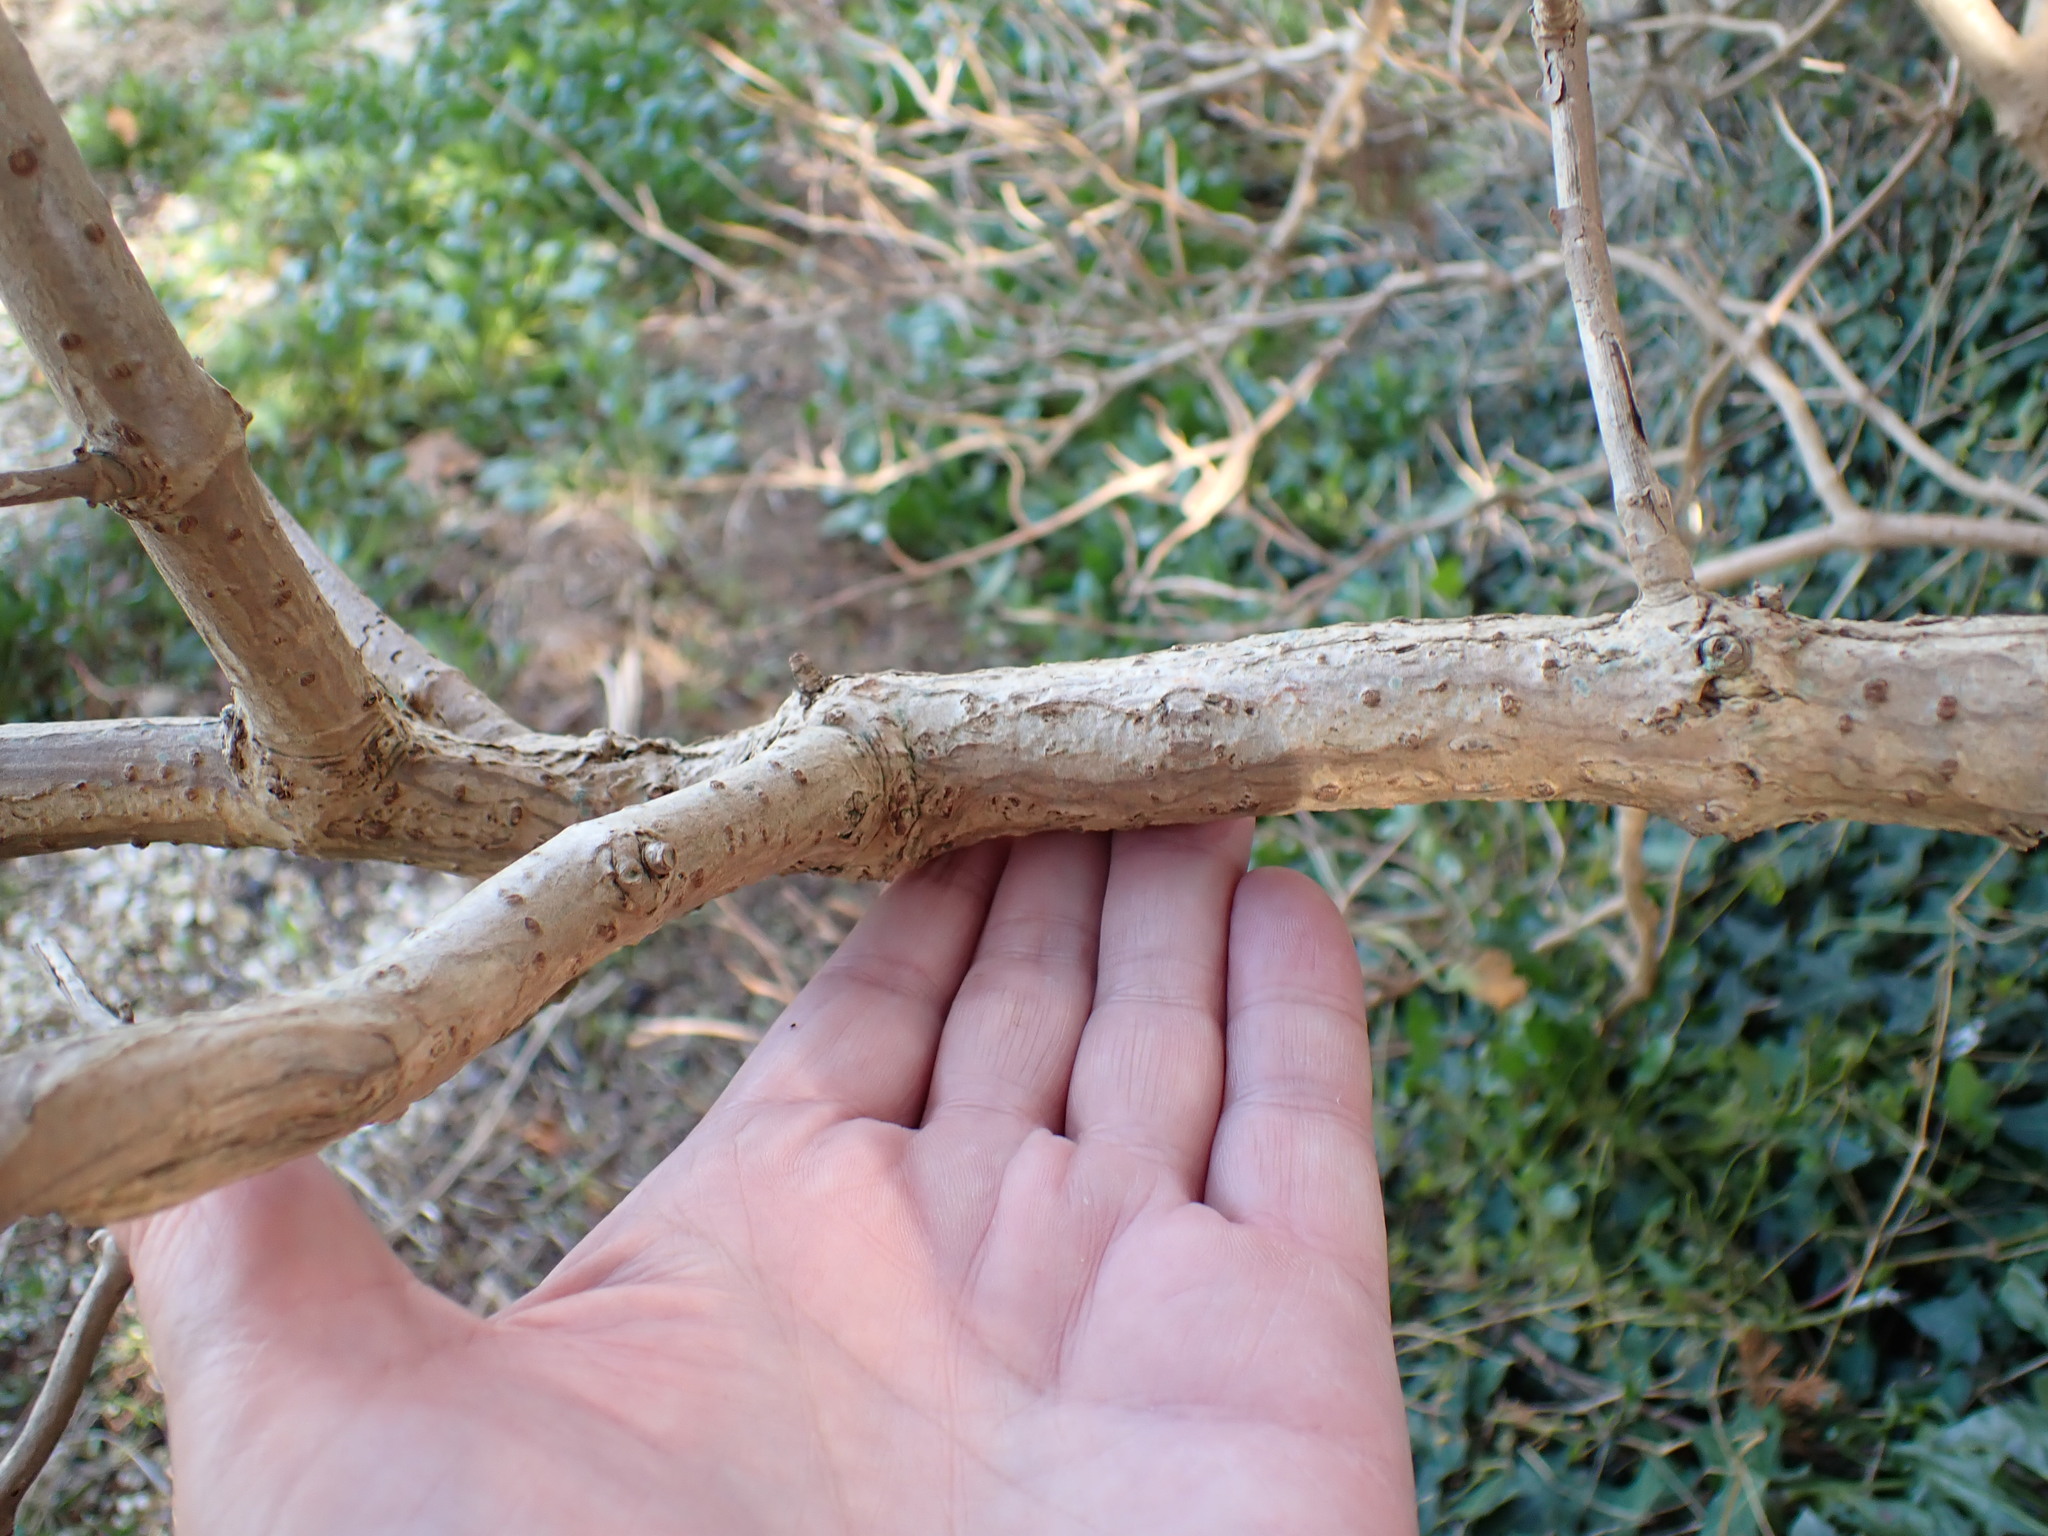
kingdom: Plantae
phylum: Tracheophyta
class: Magnoliopsida
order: Dipsacales
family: Viburnaceae
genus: Sambucus
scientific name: Sambucus nigra
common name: Elder
